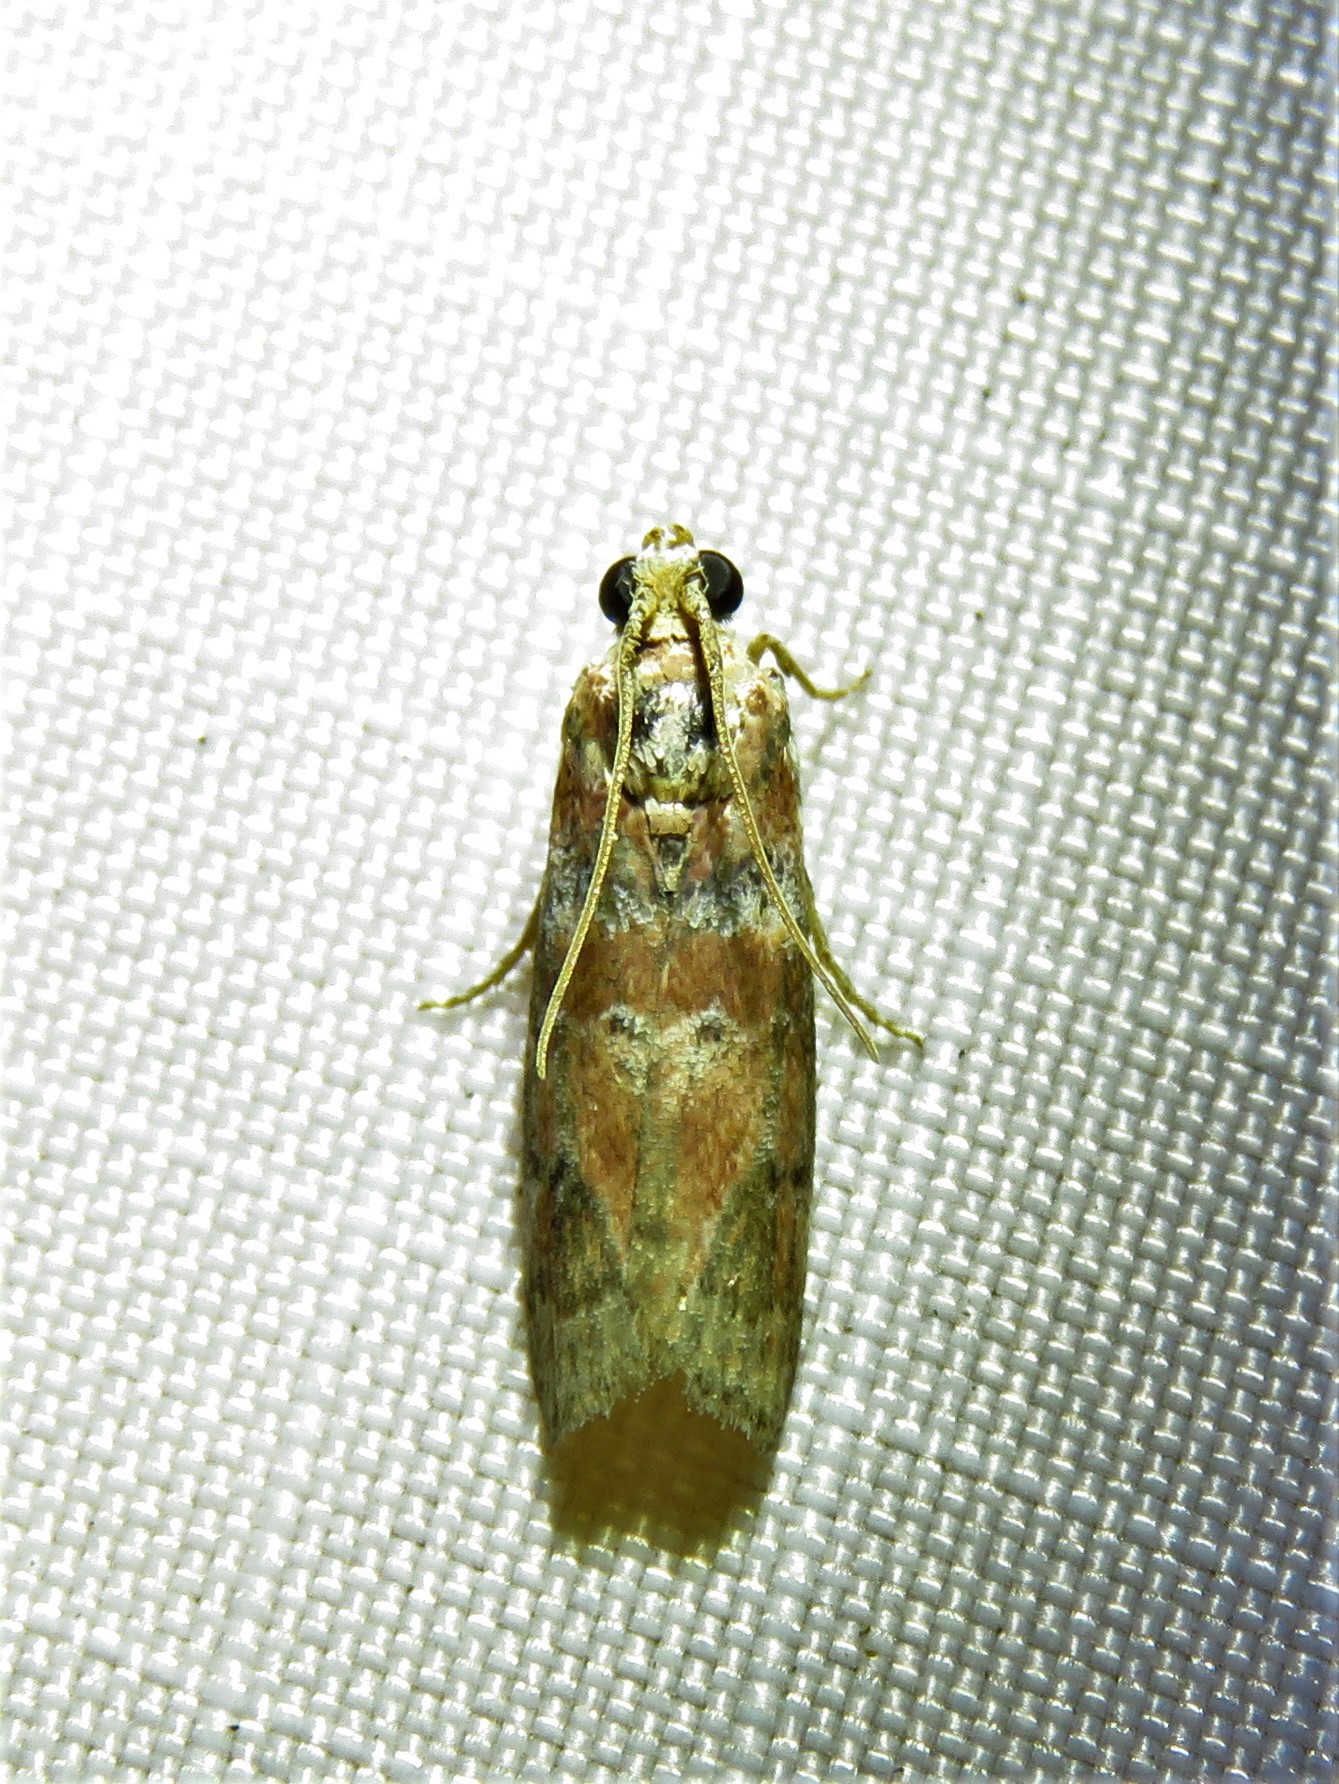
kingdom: Animalia
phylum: Arthropoda
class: Insecta
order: Lepidoptera
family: Pyralidae
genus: Sciota
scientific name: Sciota celtidella
